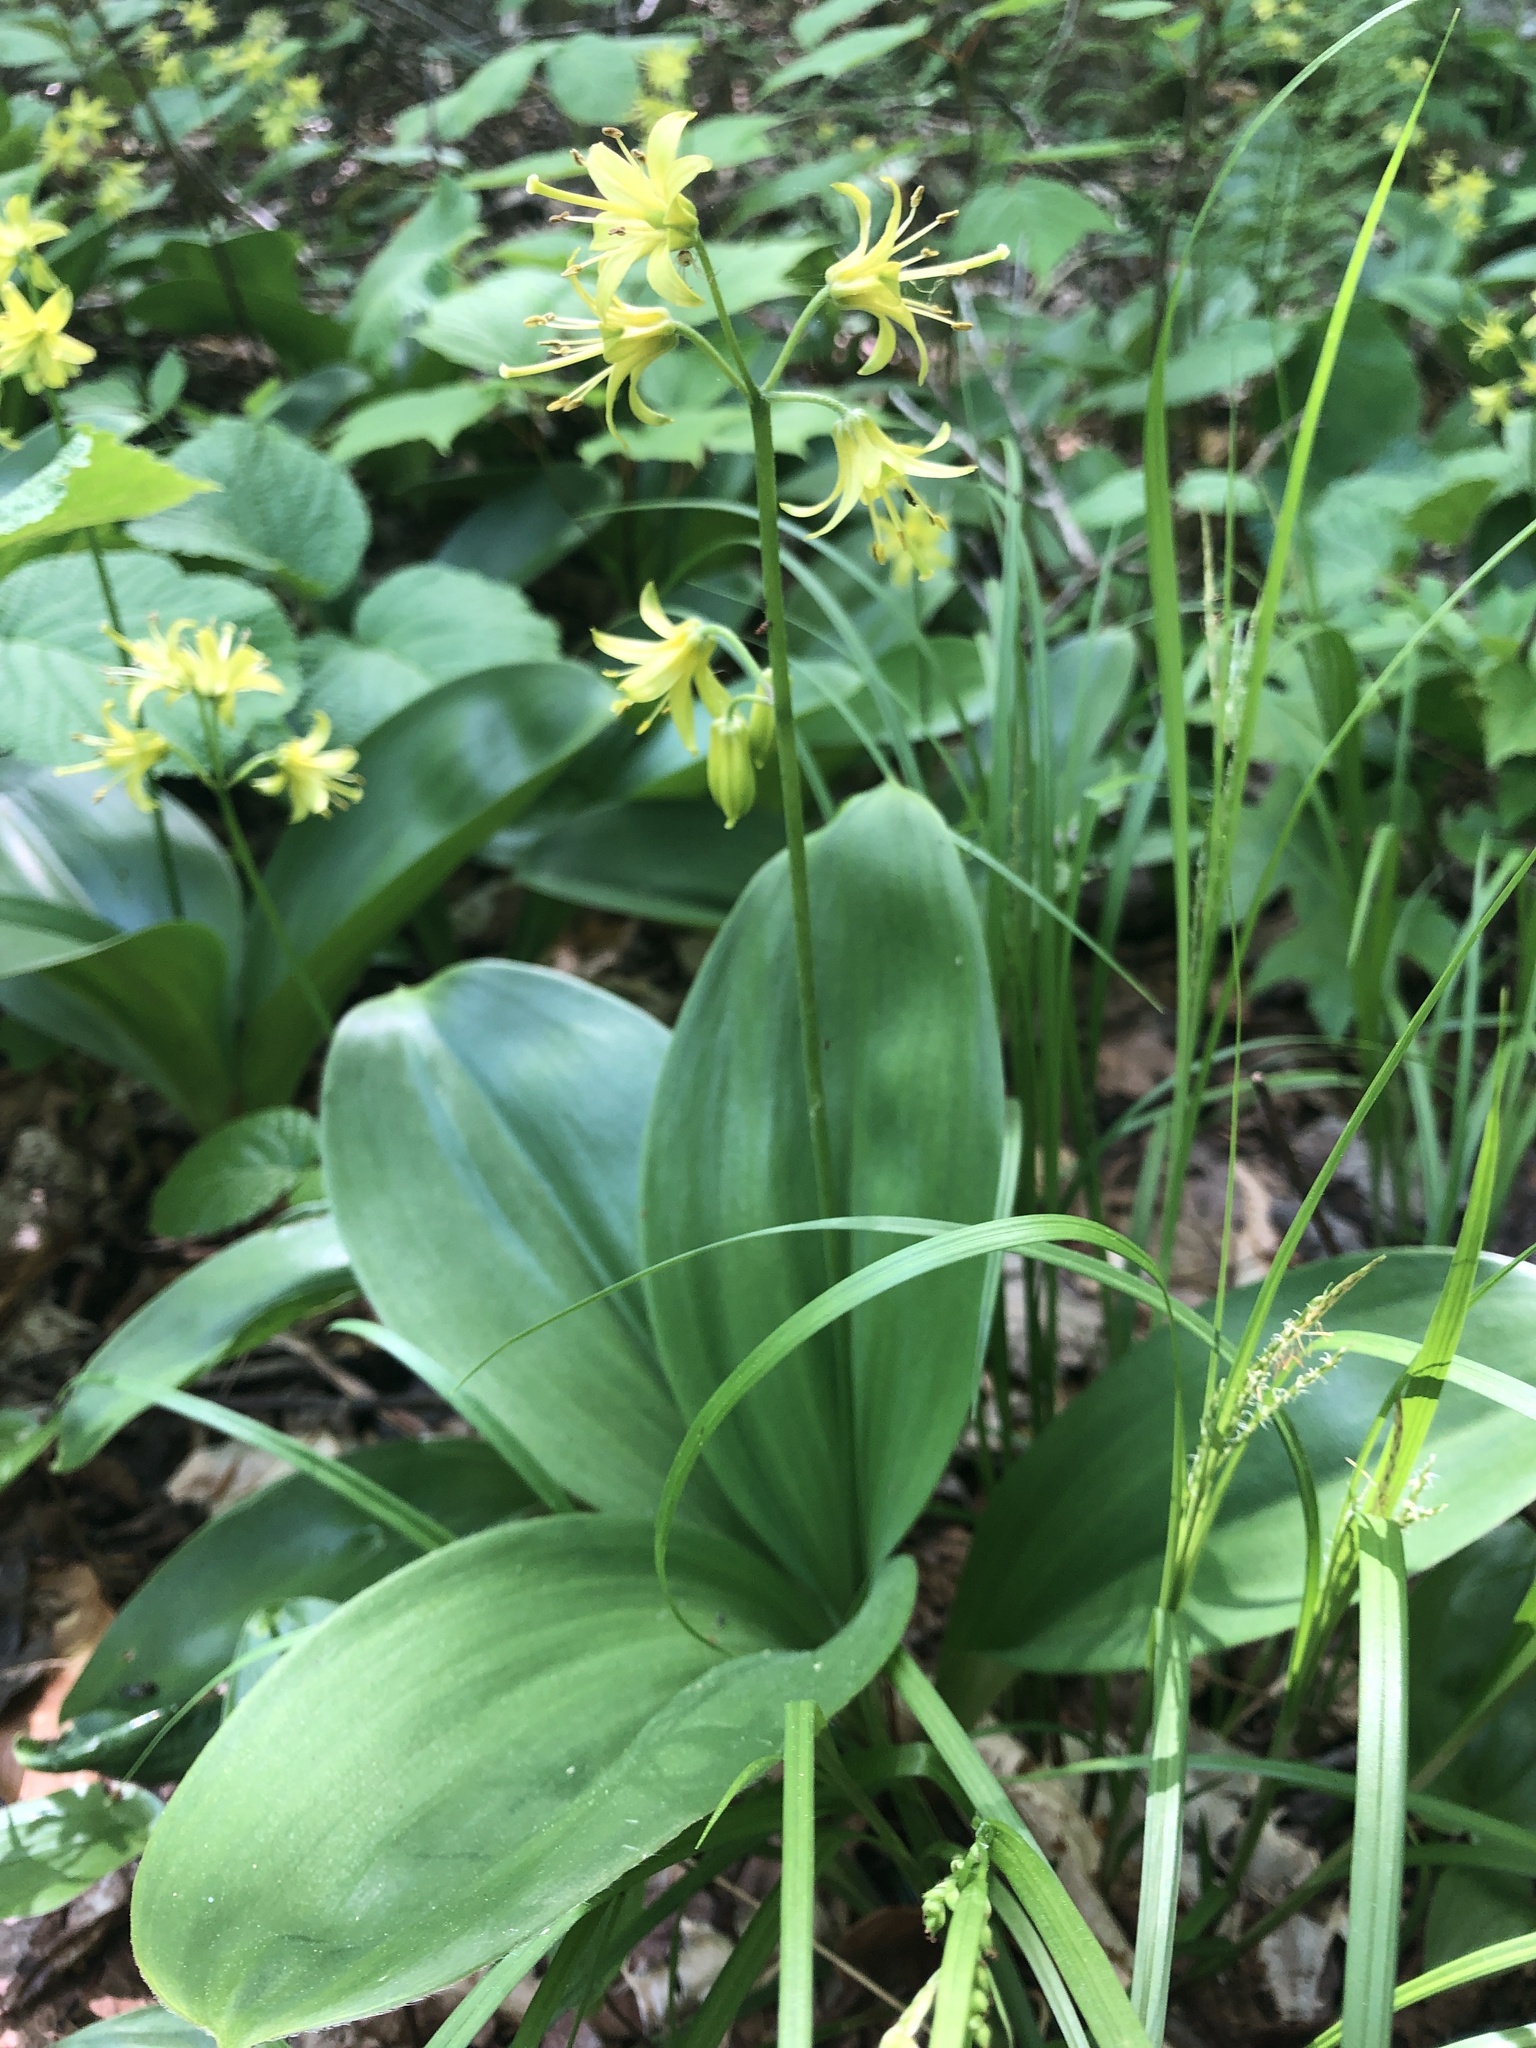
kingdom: Plantae
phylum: Tracheophyta
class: Liliopsida
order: Liliales
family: Liliaceae
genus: Clintonia
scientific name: Clintonia borealis
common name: Yellow clintonia
